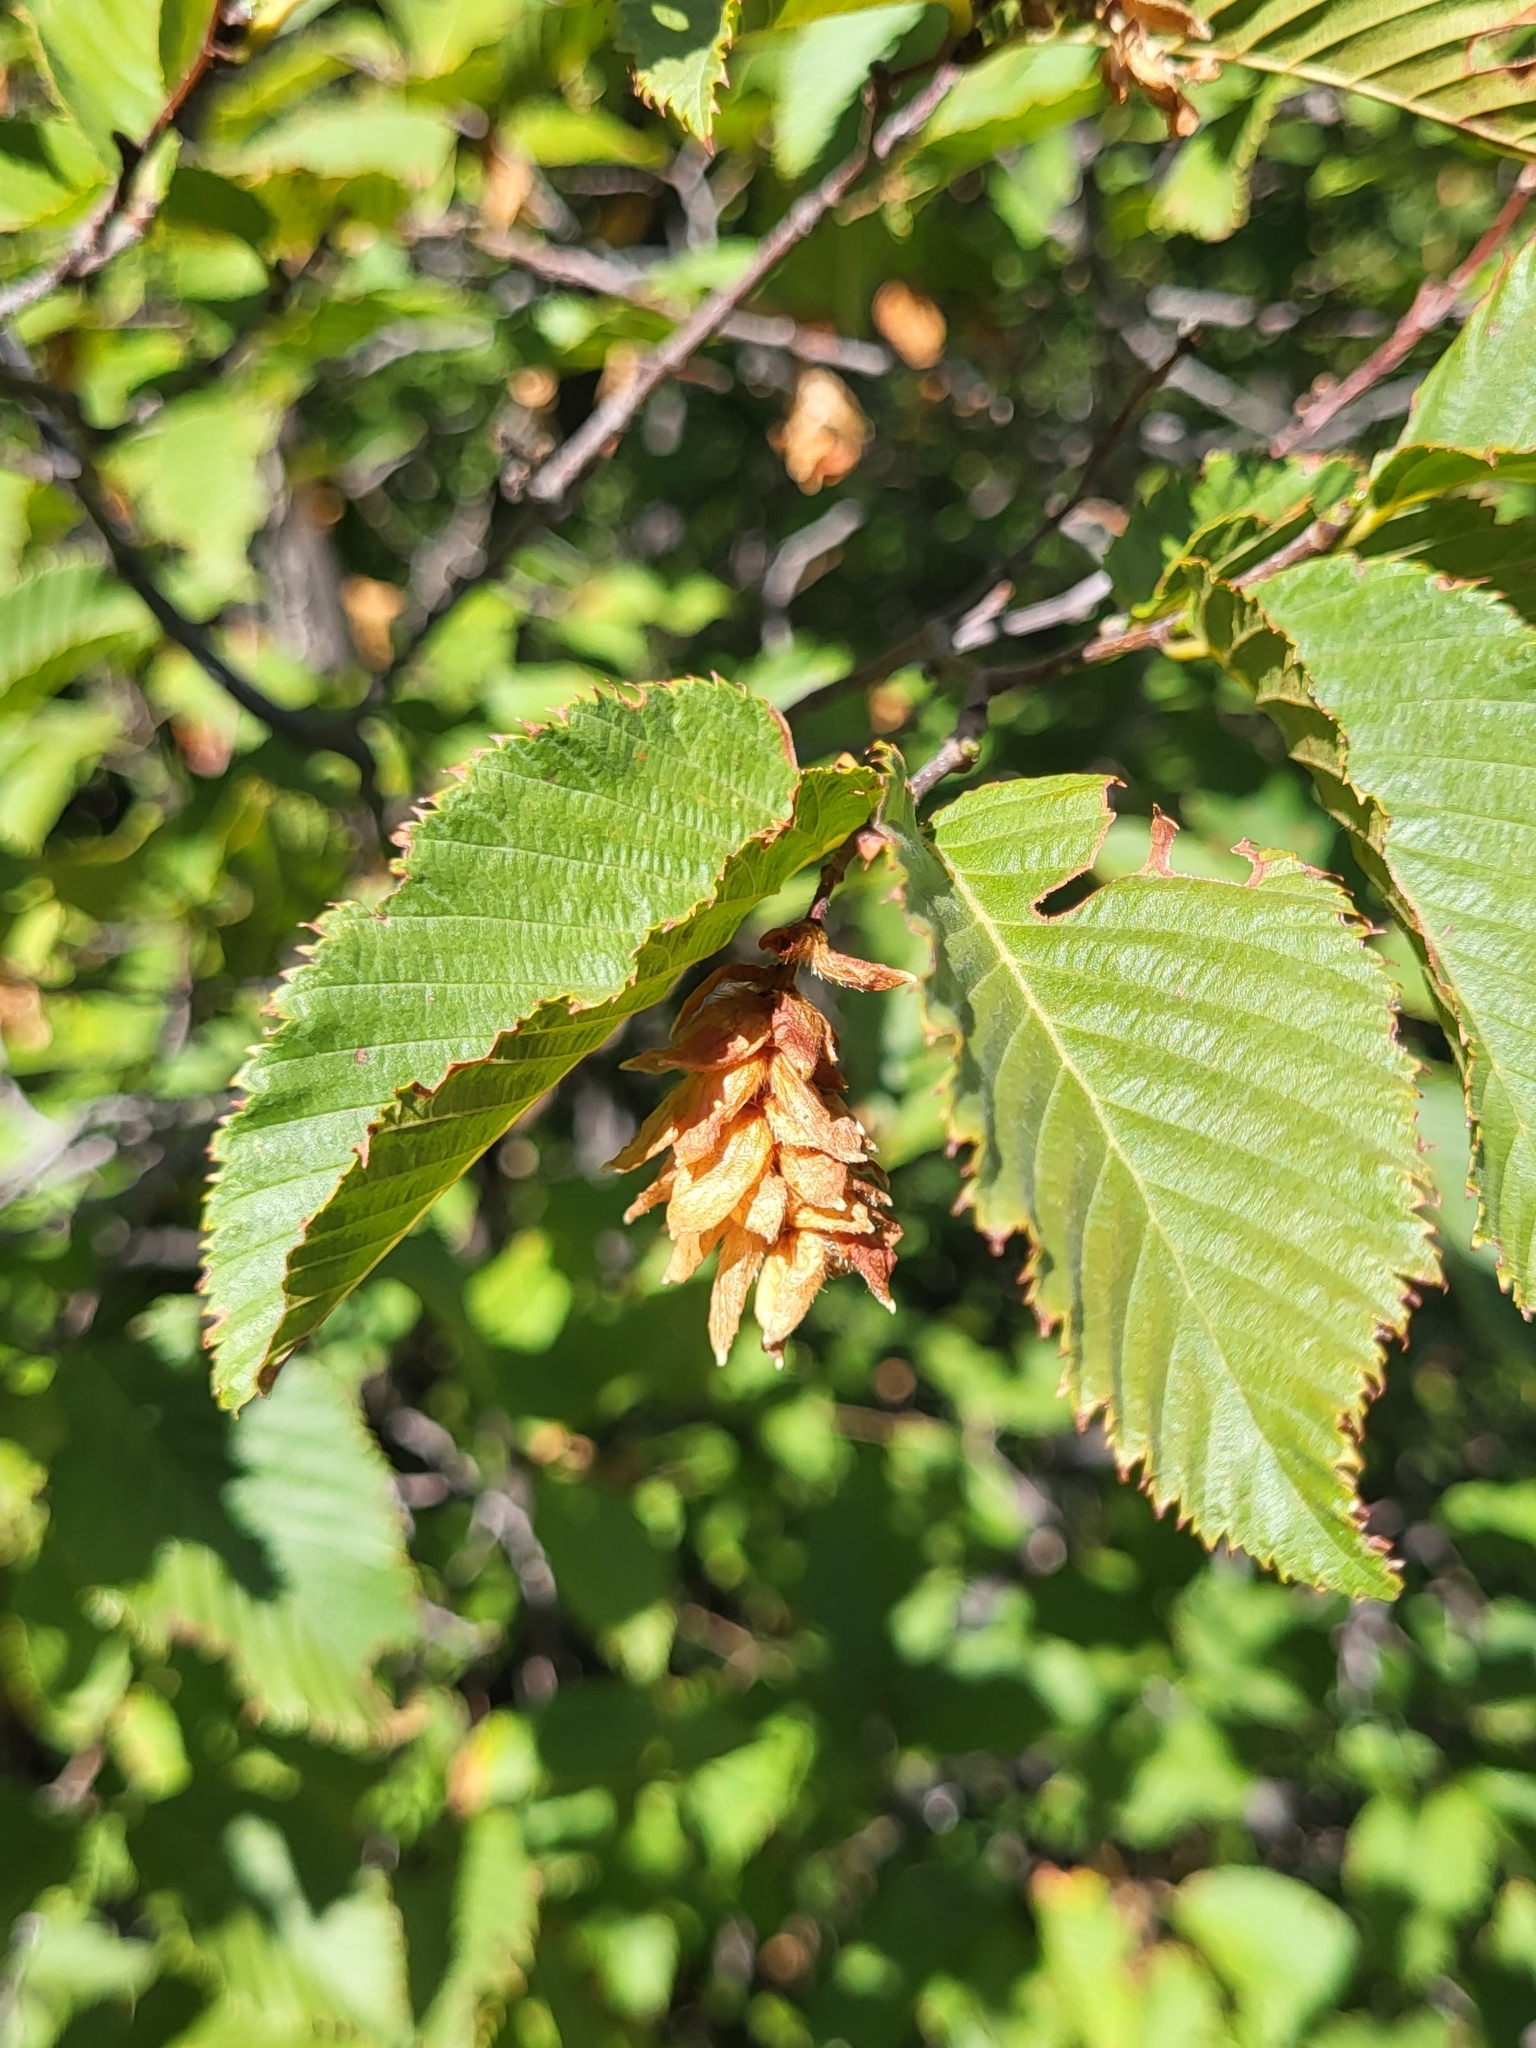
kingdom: Plantae
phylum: Tracheophyta
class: Magnoliopsida
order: Fagales
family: Betulaceae
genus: Ostrya
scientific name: Ostrya carpinifolia
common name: European hop-hornbeam
